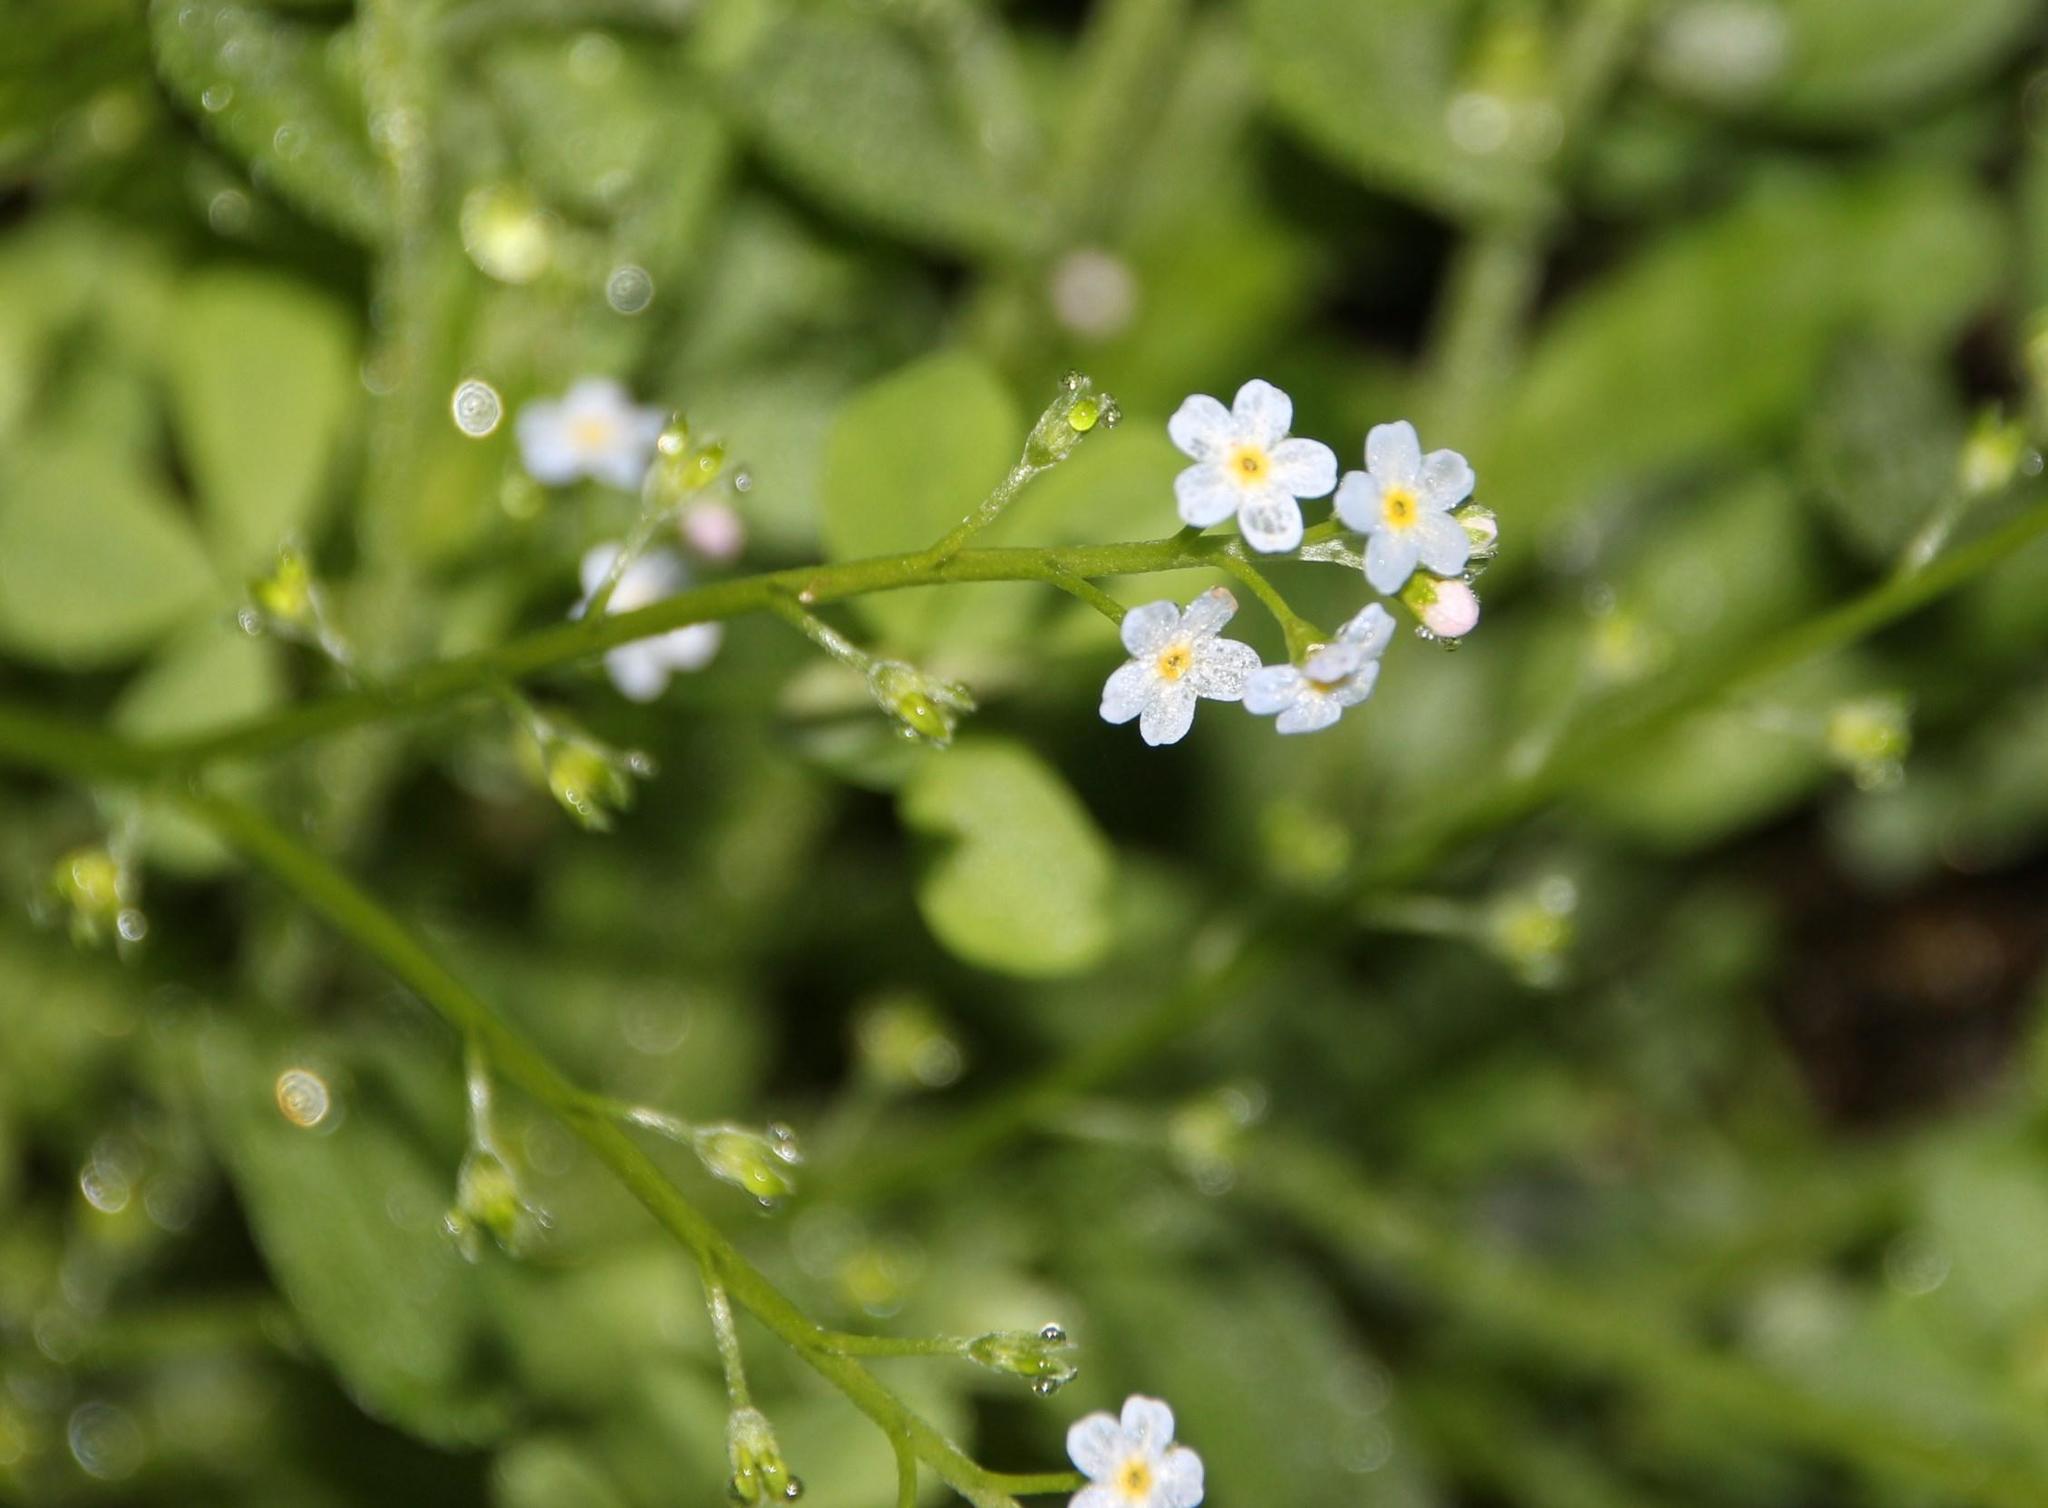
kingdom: Plantae
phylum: Tracheophyta
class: Magnoliopsida
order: Boraginales
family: Boraginaceae
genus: Myosotis
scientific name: Myosotis stolonifera
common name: Pale forget-me-not
